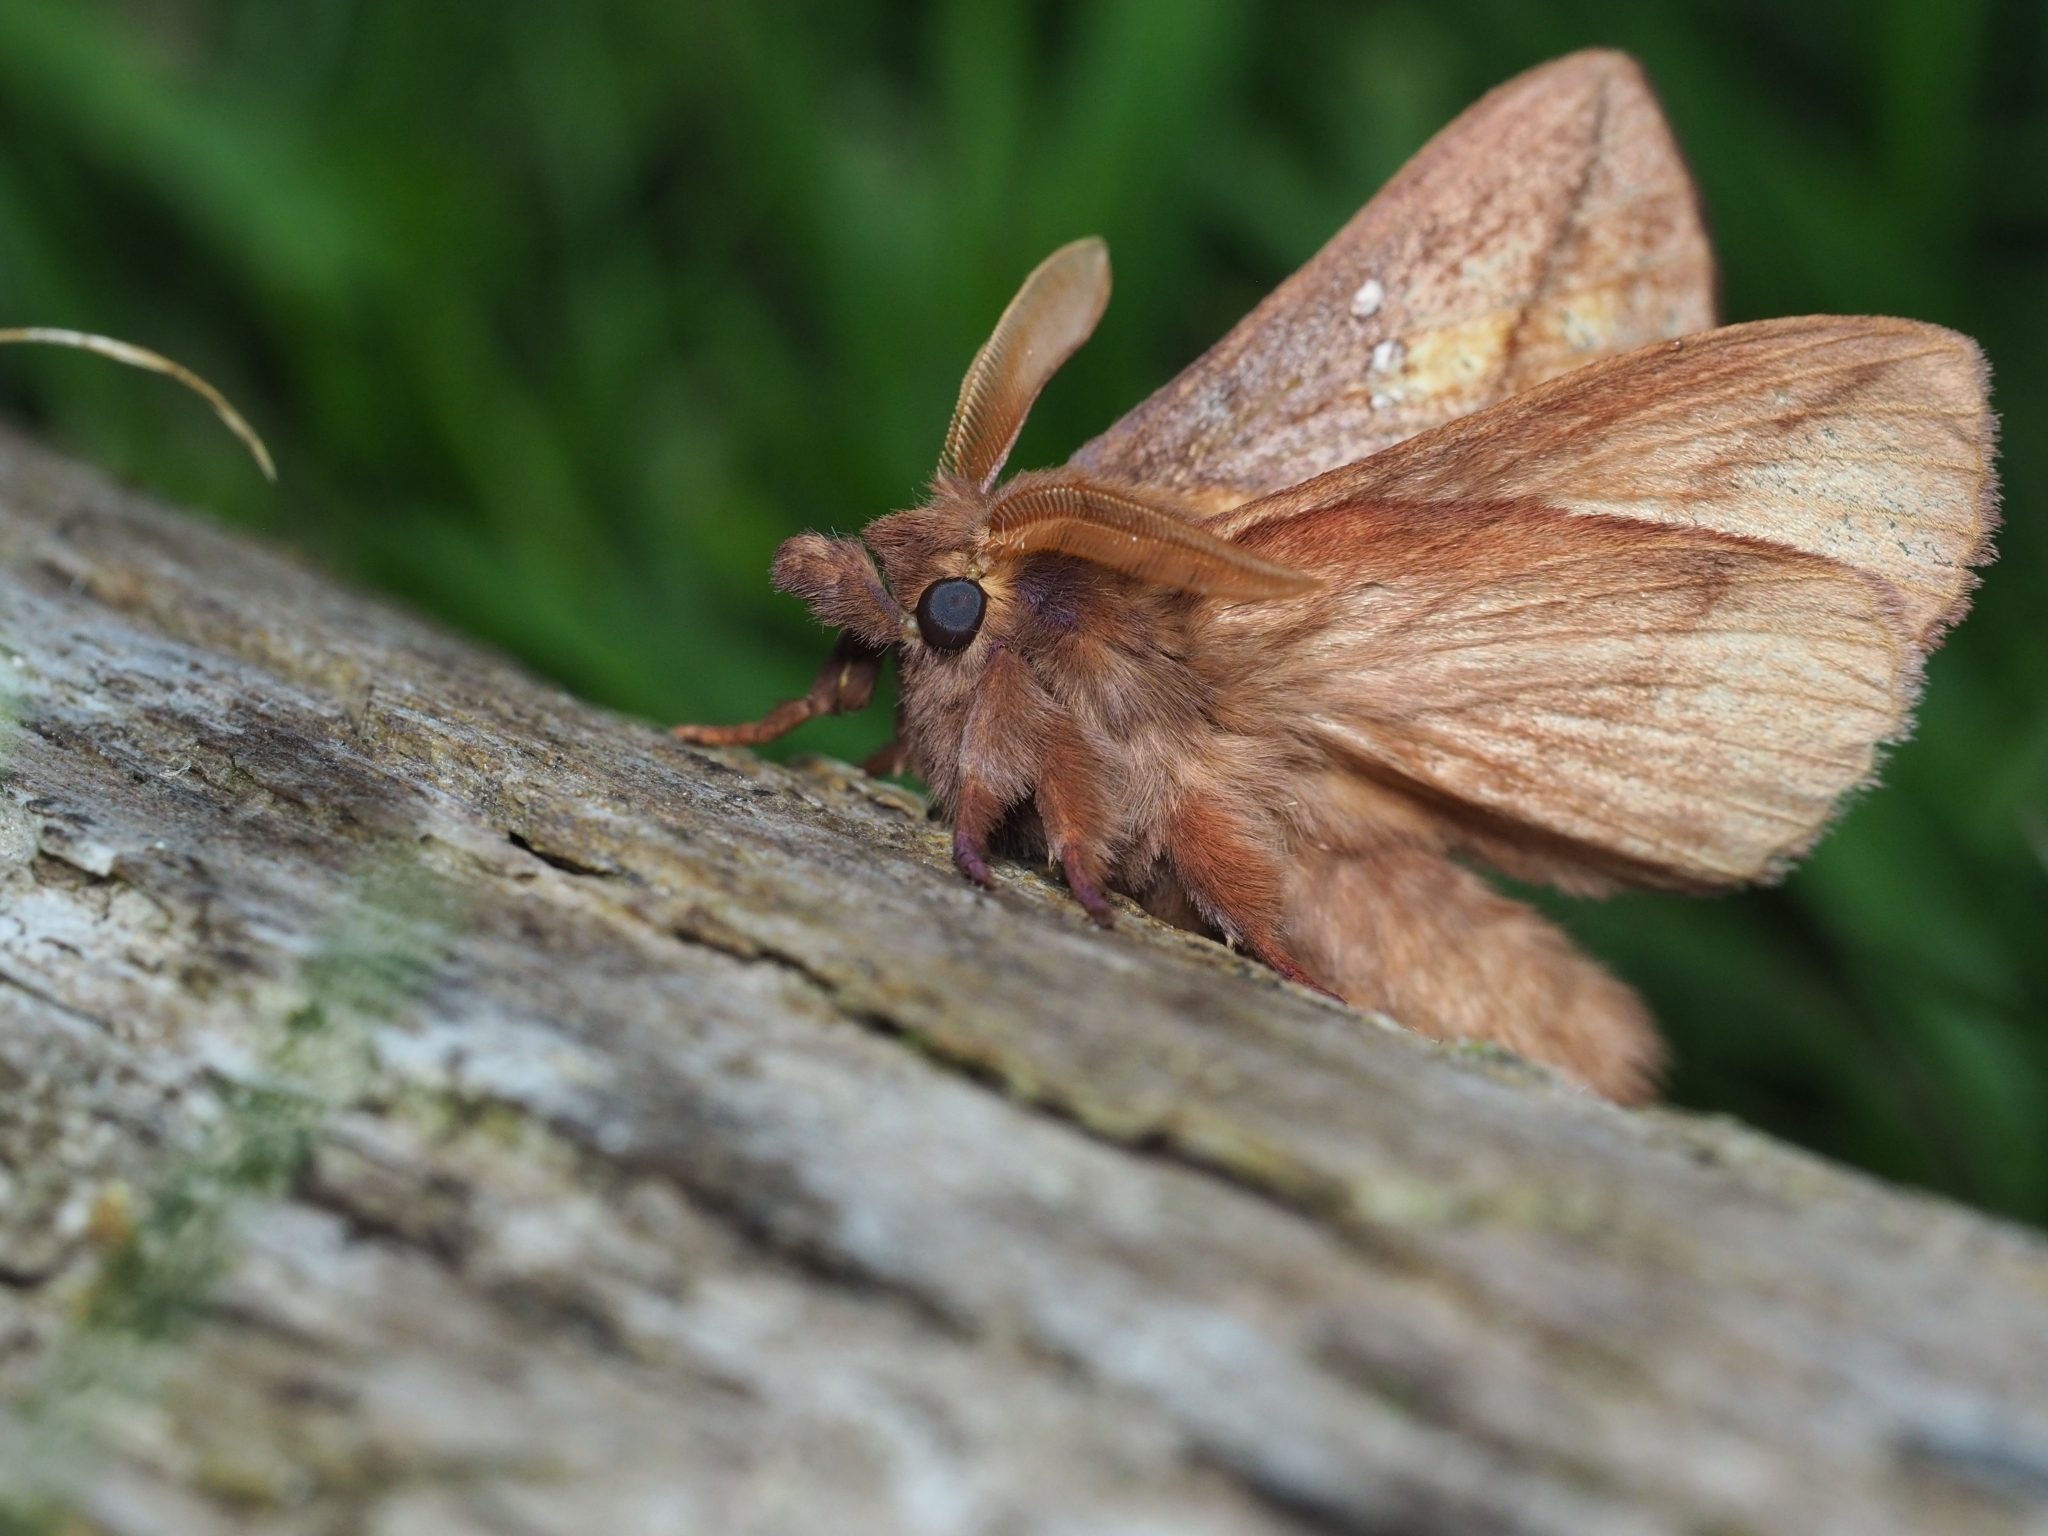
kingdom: Animalia
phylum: Arthropoda
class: Insecta
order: Lepidoptera
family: Lasiocampidae
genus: Euthrix
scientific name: Euthrix potatoria
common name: Drinker
